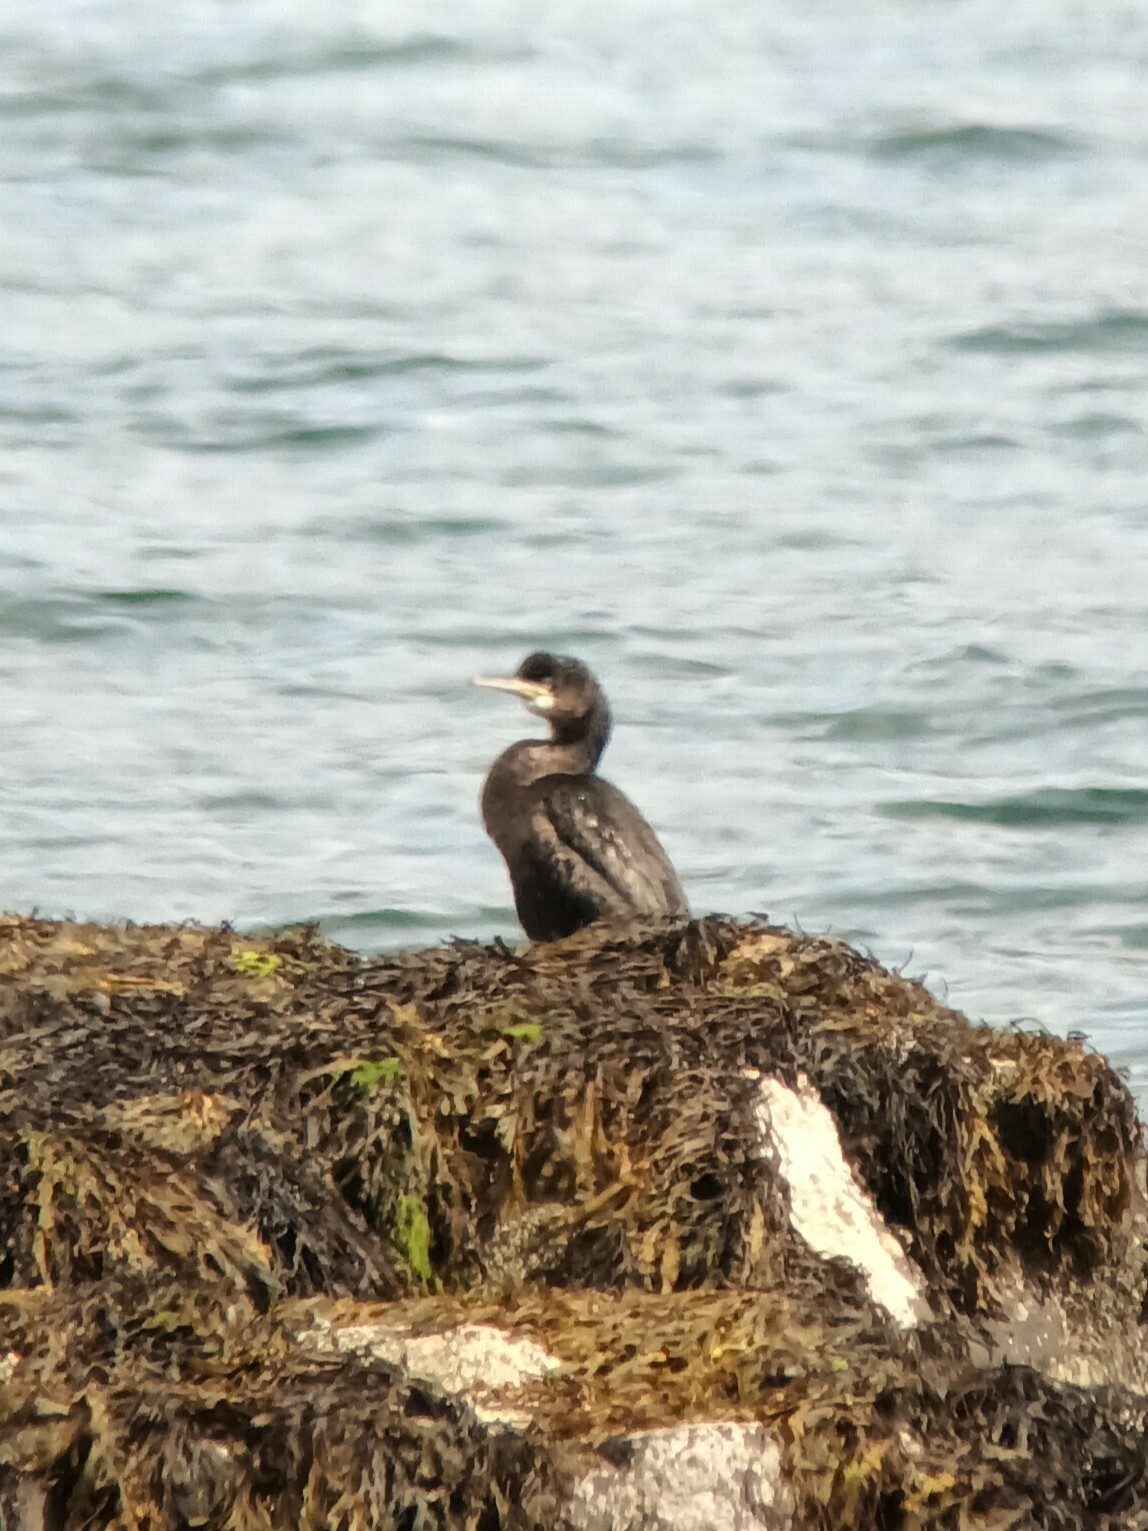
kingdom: Animalia
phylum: Chordata
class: Aves
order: Suliformes
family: Phalacrocoracidae
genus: Phalacrocorax
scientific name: Phalacrocorax aristotelis
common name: European shag
